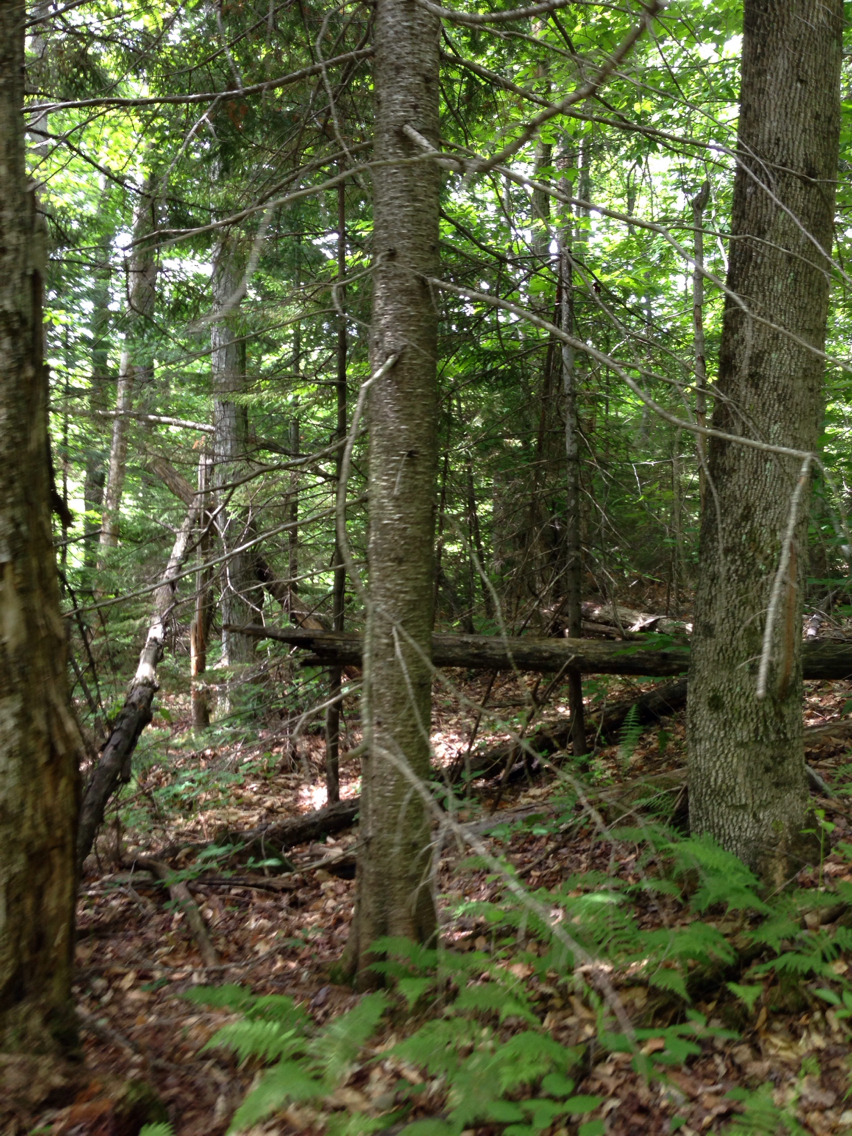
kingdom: Plantae
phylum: Tracheophyta
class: Pinopsida
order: Pinales
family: Pinaceae
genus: Abies
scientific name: Abies balsamea
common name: Balsam fir
